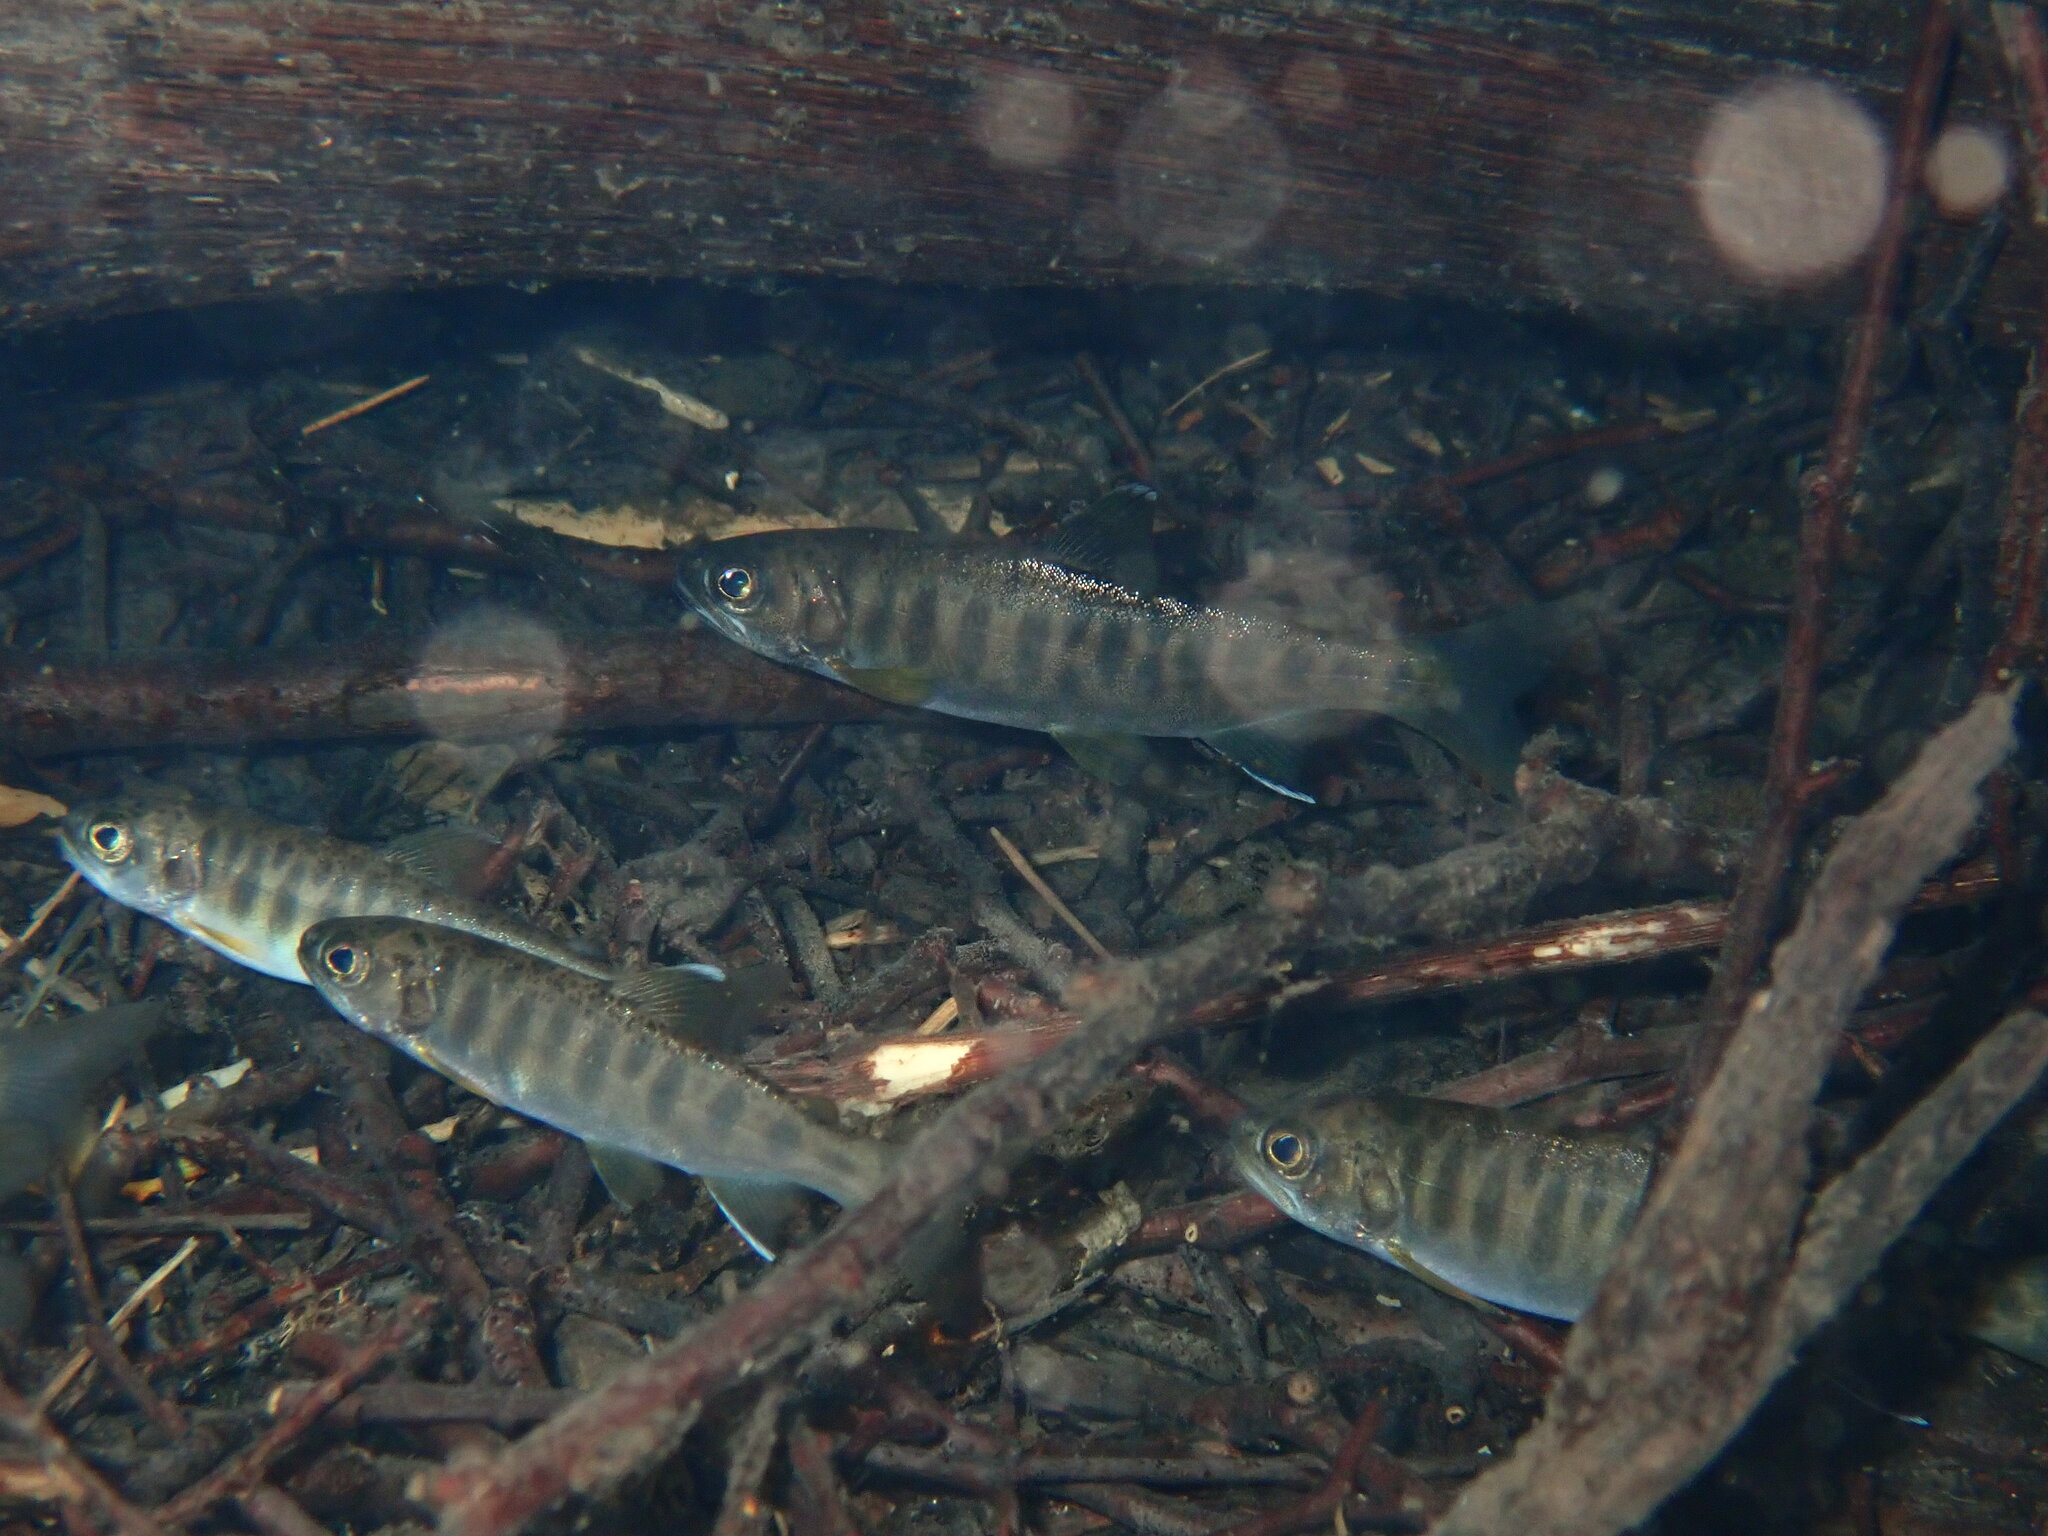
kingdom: Animalia
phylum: Chordata
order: Salmoniformes
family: Salmonidae
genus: Oncorhynchus
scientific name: Oncorhynchus kisutch
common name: Coho salmon
